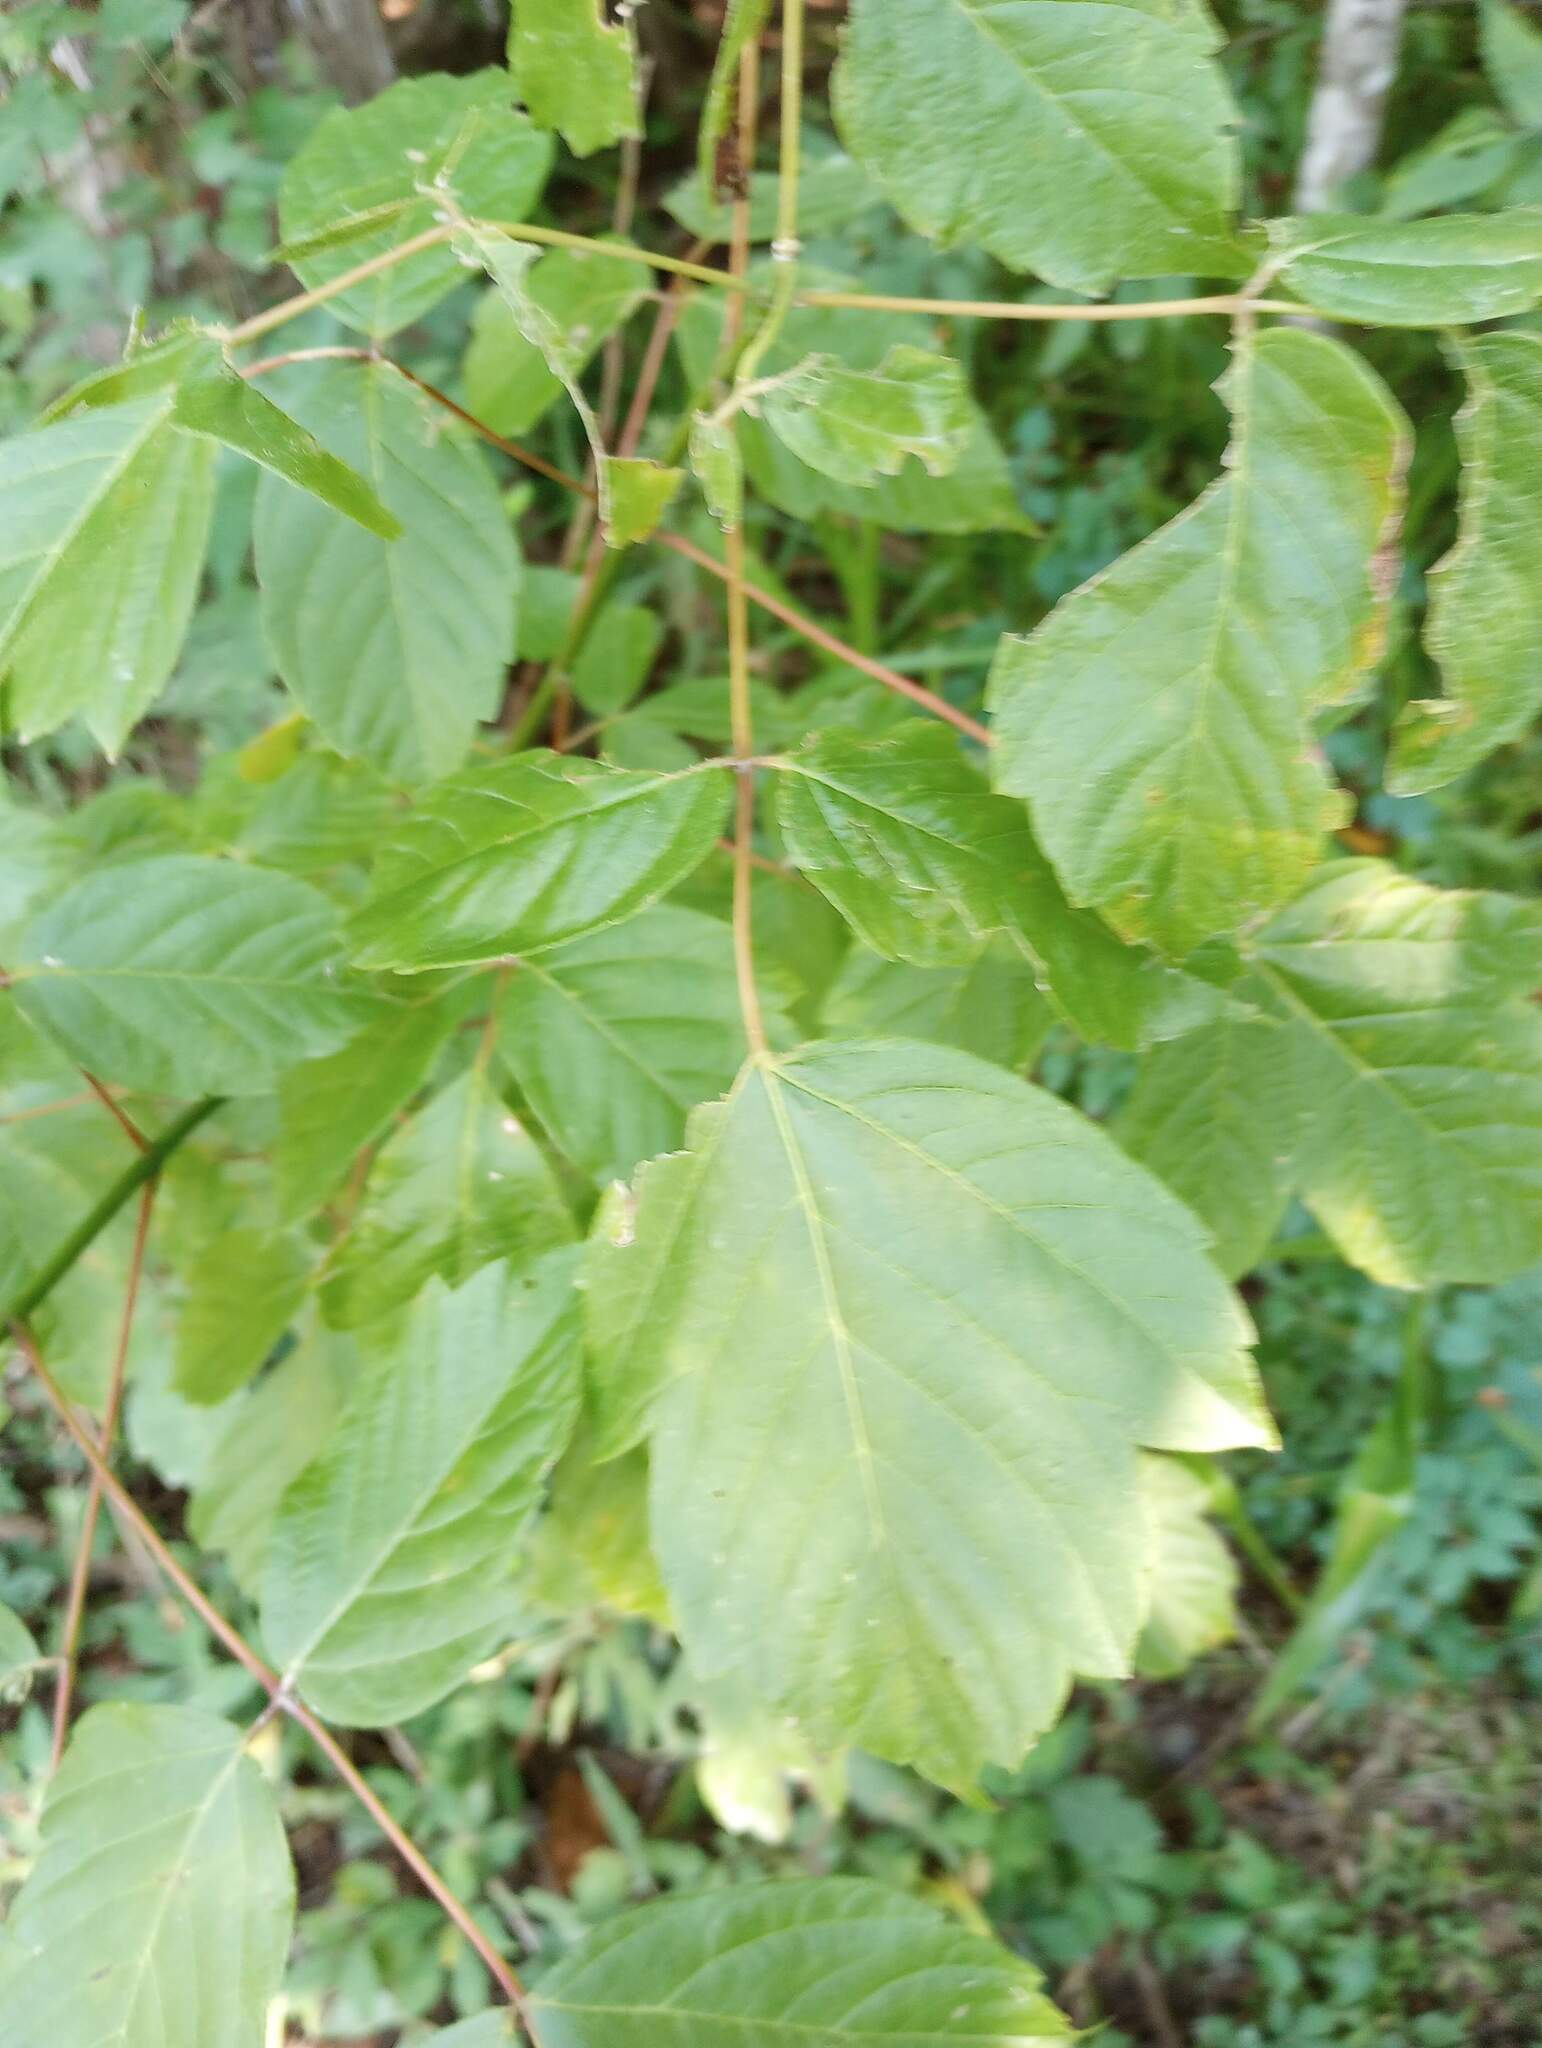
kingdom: Plantae
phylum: Tracheophyta
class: Magnoliopsida
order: Sapindales
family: Sapindaceae
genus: Acer
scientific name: Acer negundo
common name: Ashleaf maple
